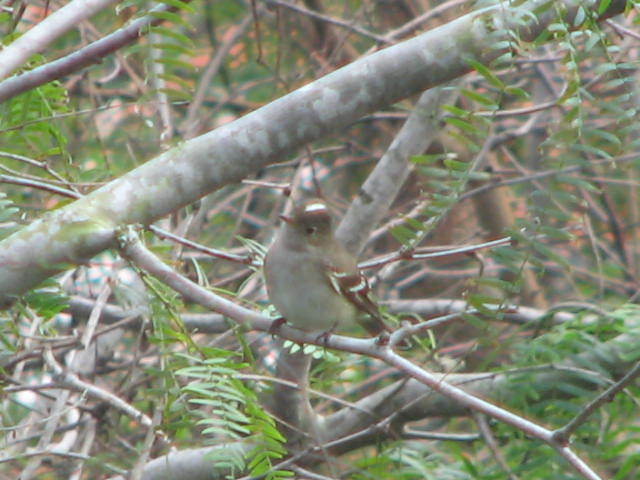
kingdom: Animalia
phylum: Chordata
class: Aves
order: Passeriformes
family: Tyrannidae
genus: Elaenia
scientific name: Elaenia albiceps
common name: White-crested elaenia
